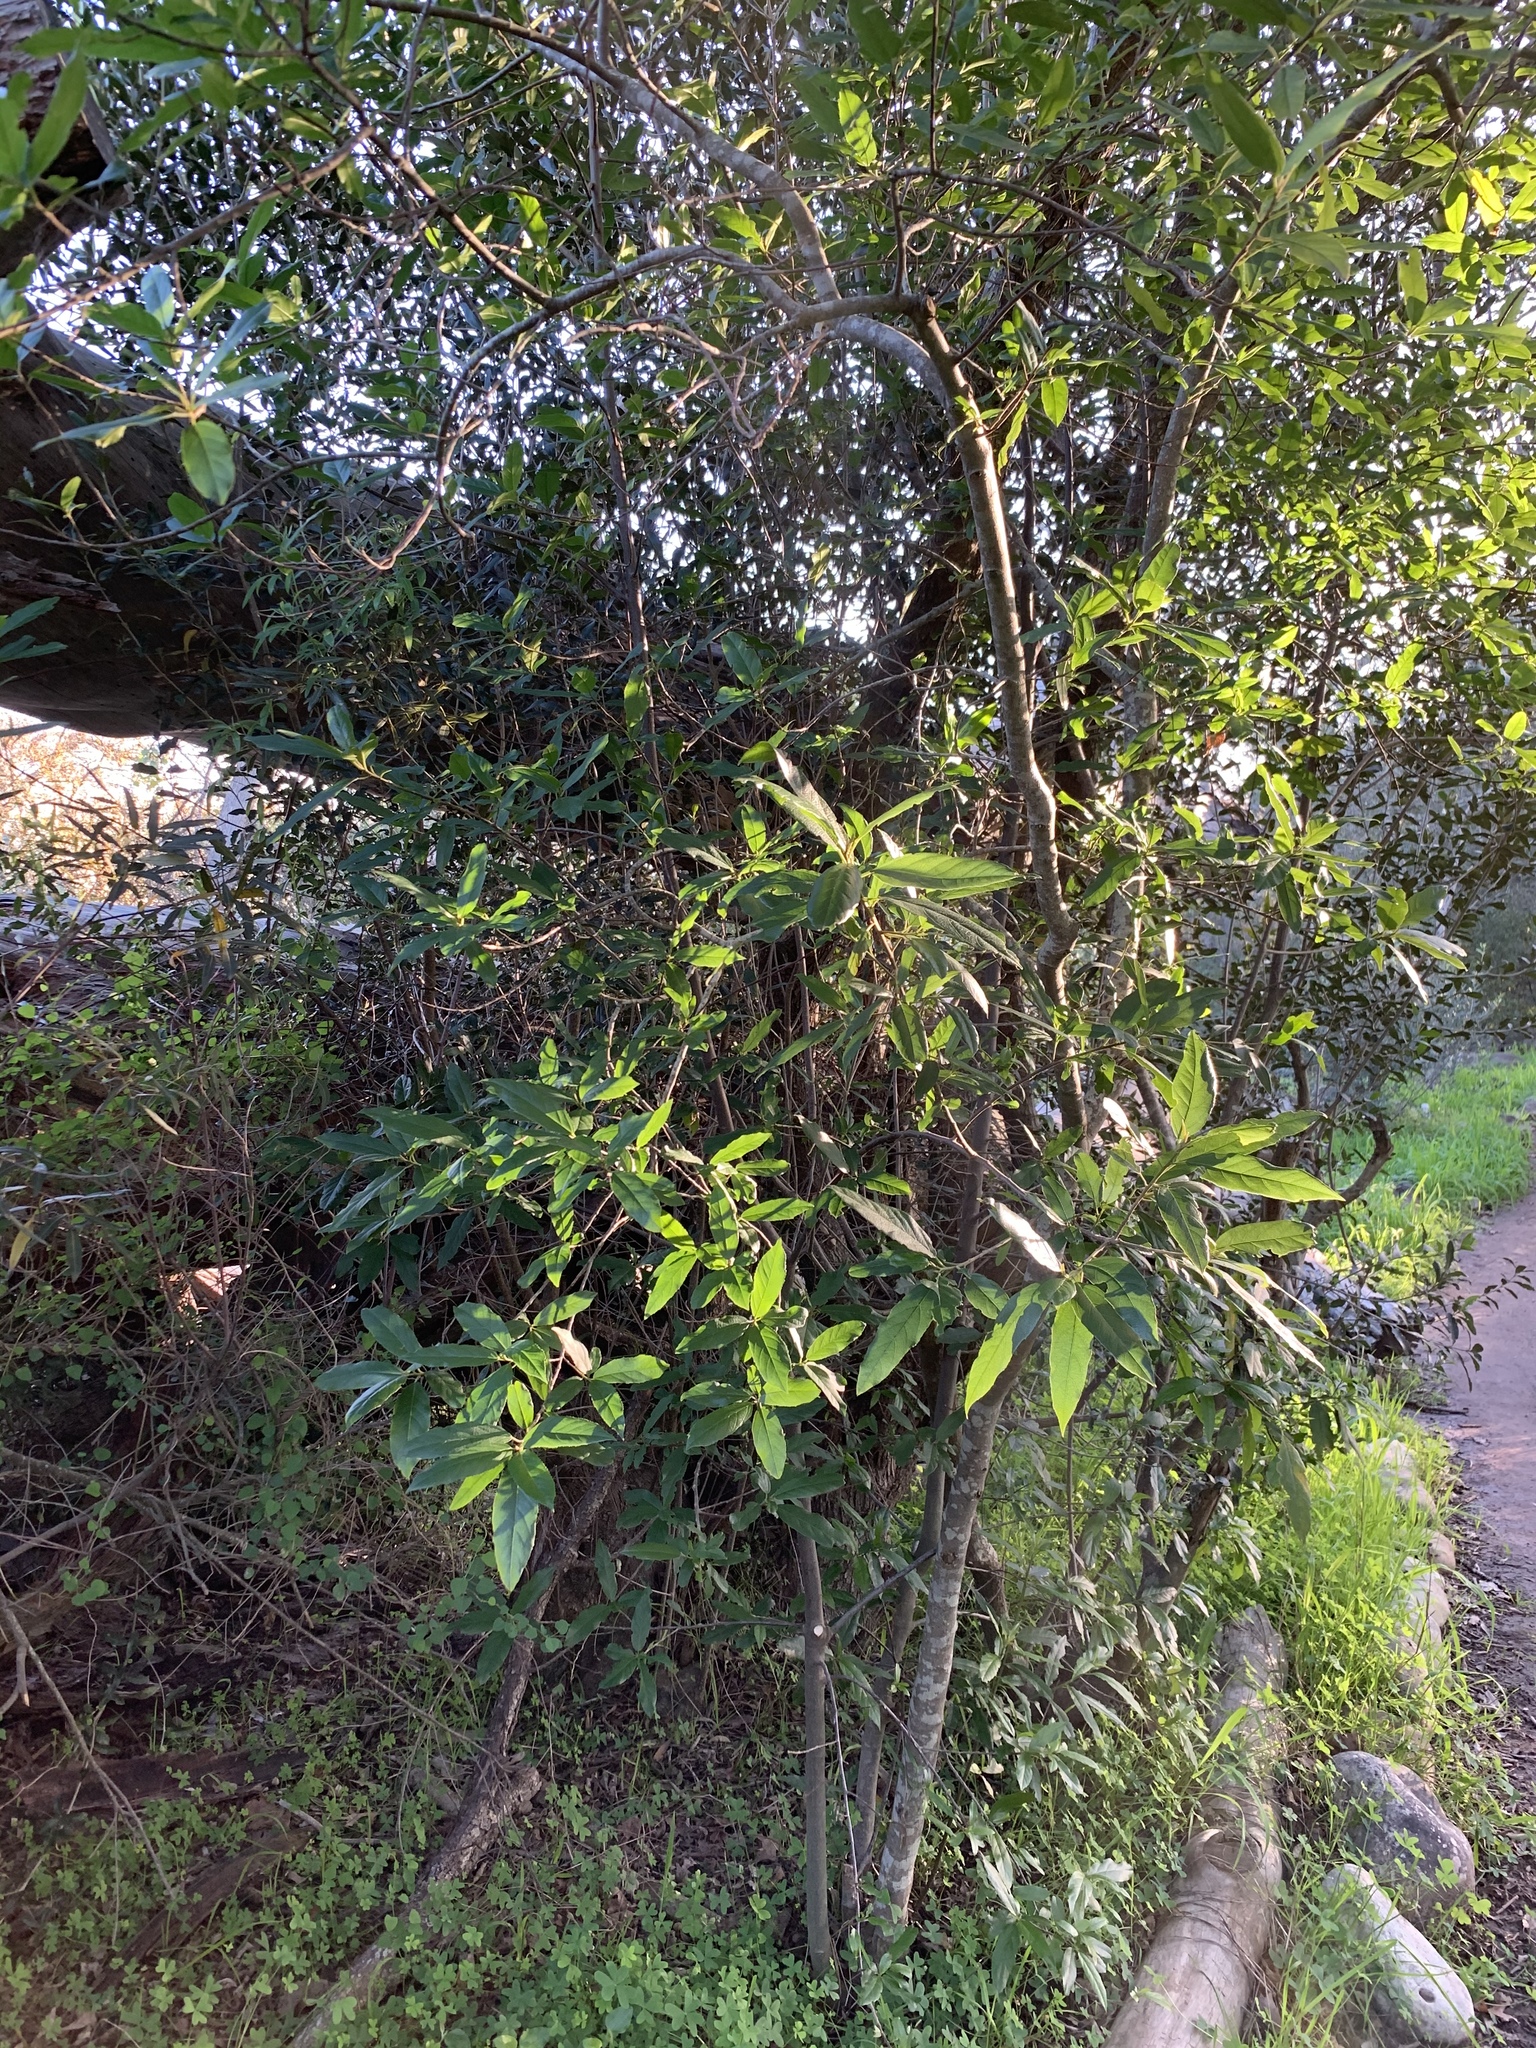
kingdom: Plantae
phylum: Tracheophyta
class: Magnoliopsida
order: Malpighiales
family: Achariaceae
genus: Kiggelaria
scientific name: Kiggelaria africana
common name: Wild peach
